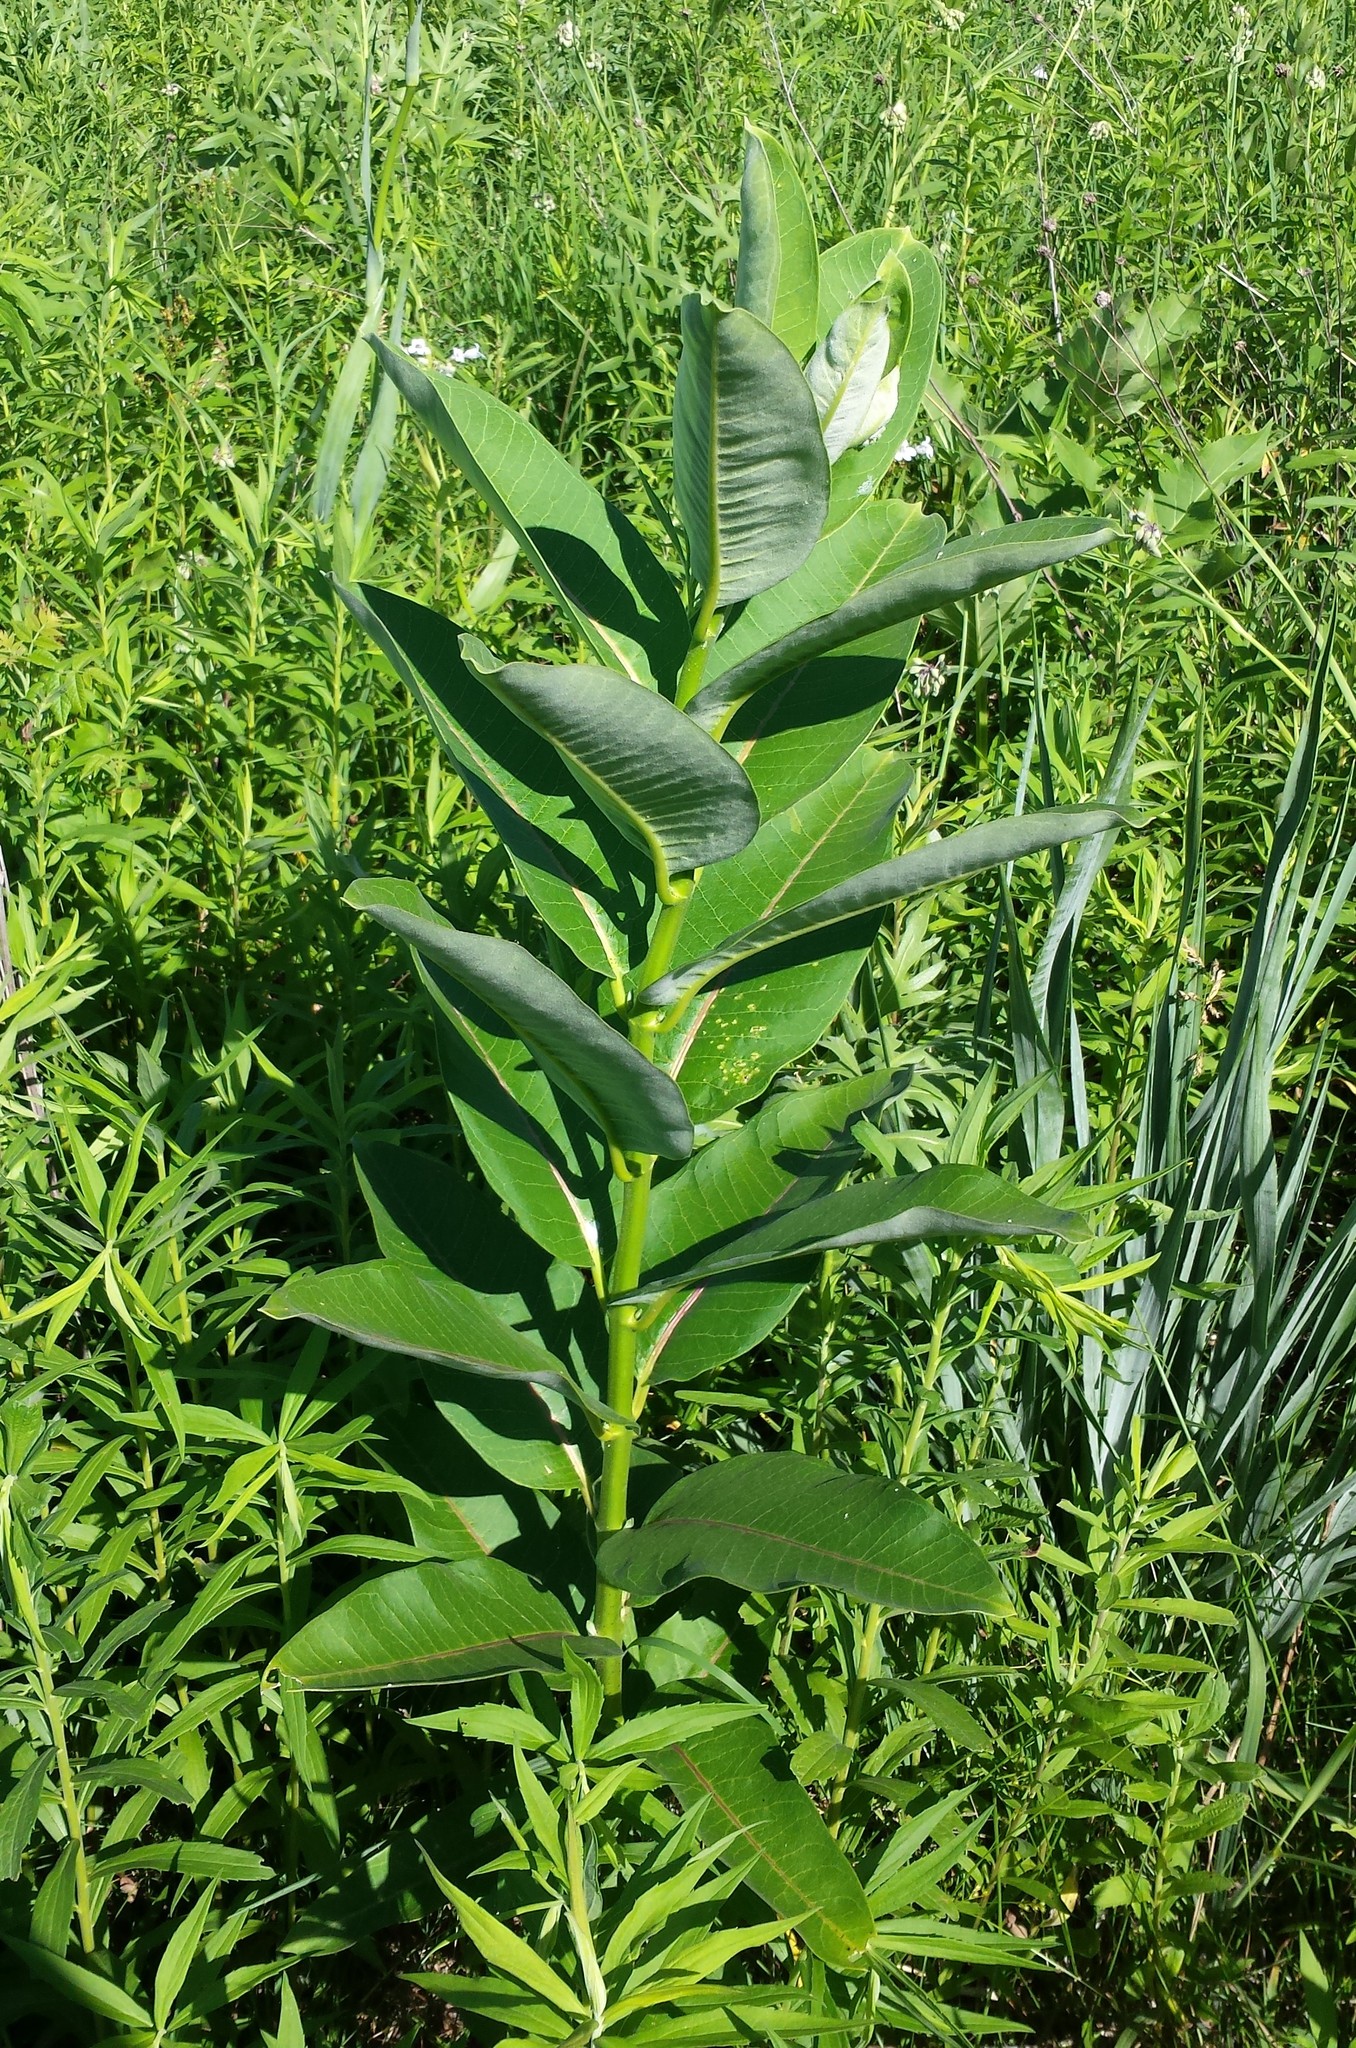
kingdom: Plantae
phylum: Tracheophyta
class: Magnoliopsida
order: Gentianales
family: Apocynaceae
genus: Asclepias
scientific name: Asclepias syriaca
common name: Common milkweed
